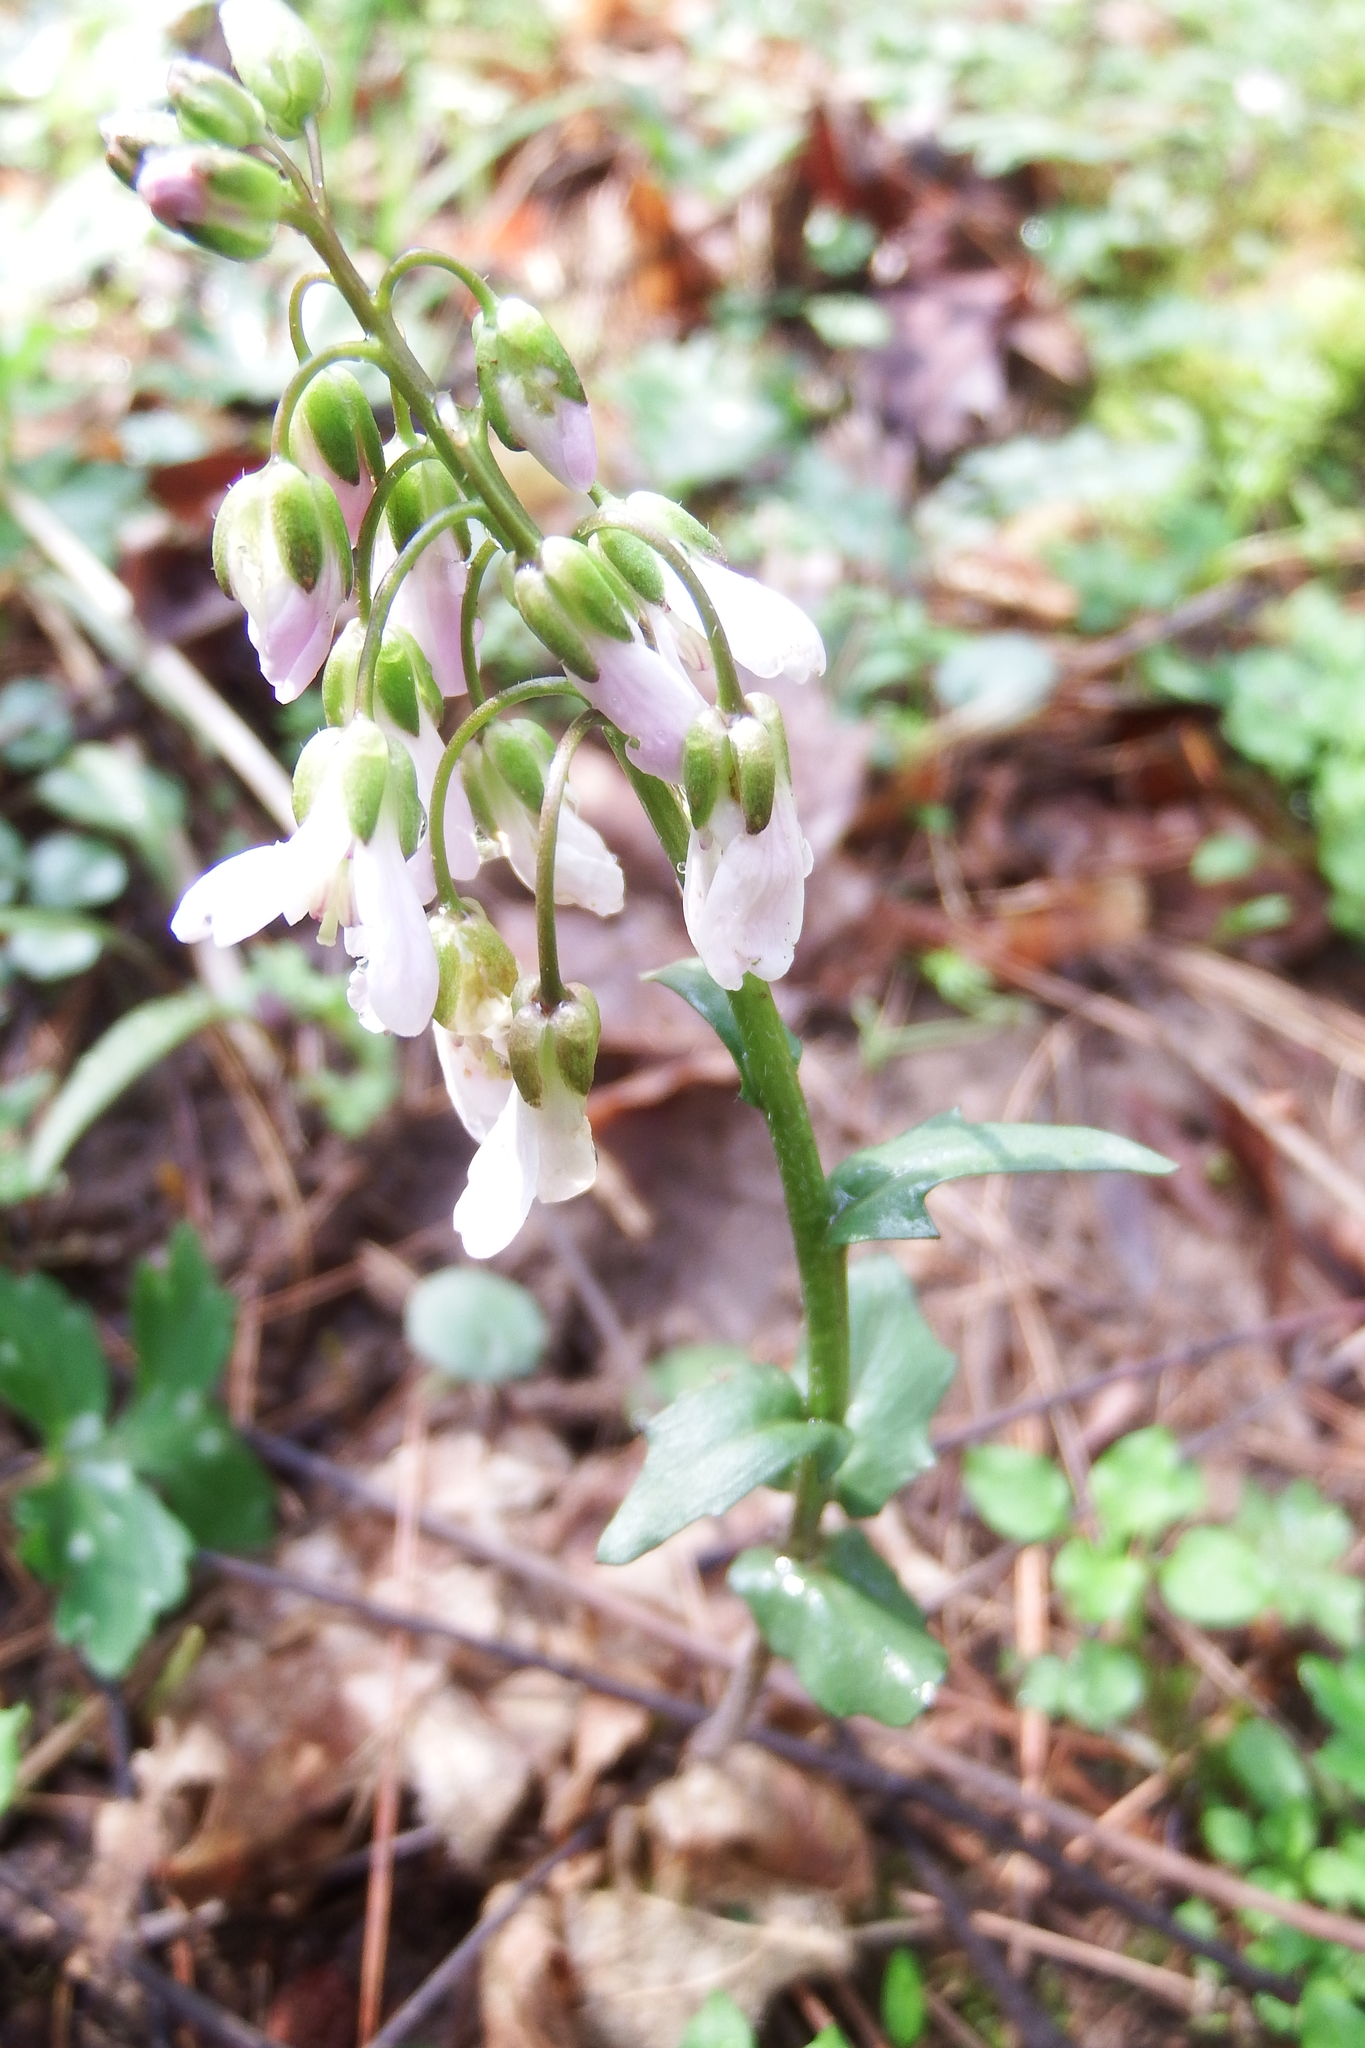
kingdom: Plantae
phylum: Tracheophyta
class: Magnoliopsida
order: Brassicales
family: Brassicaceae
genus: Cardamine
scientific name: Cardamine douglassii
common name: Purple cress
